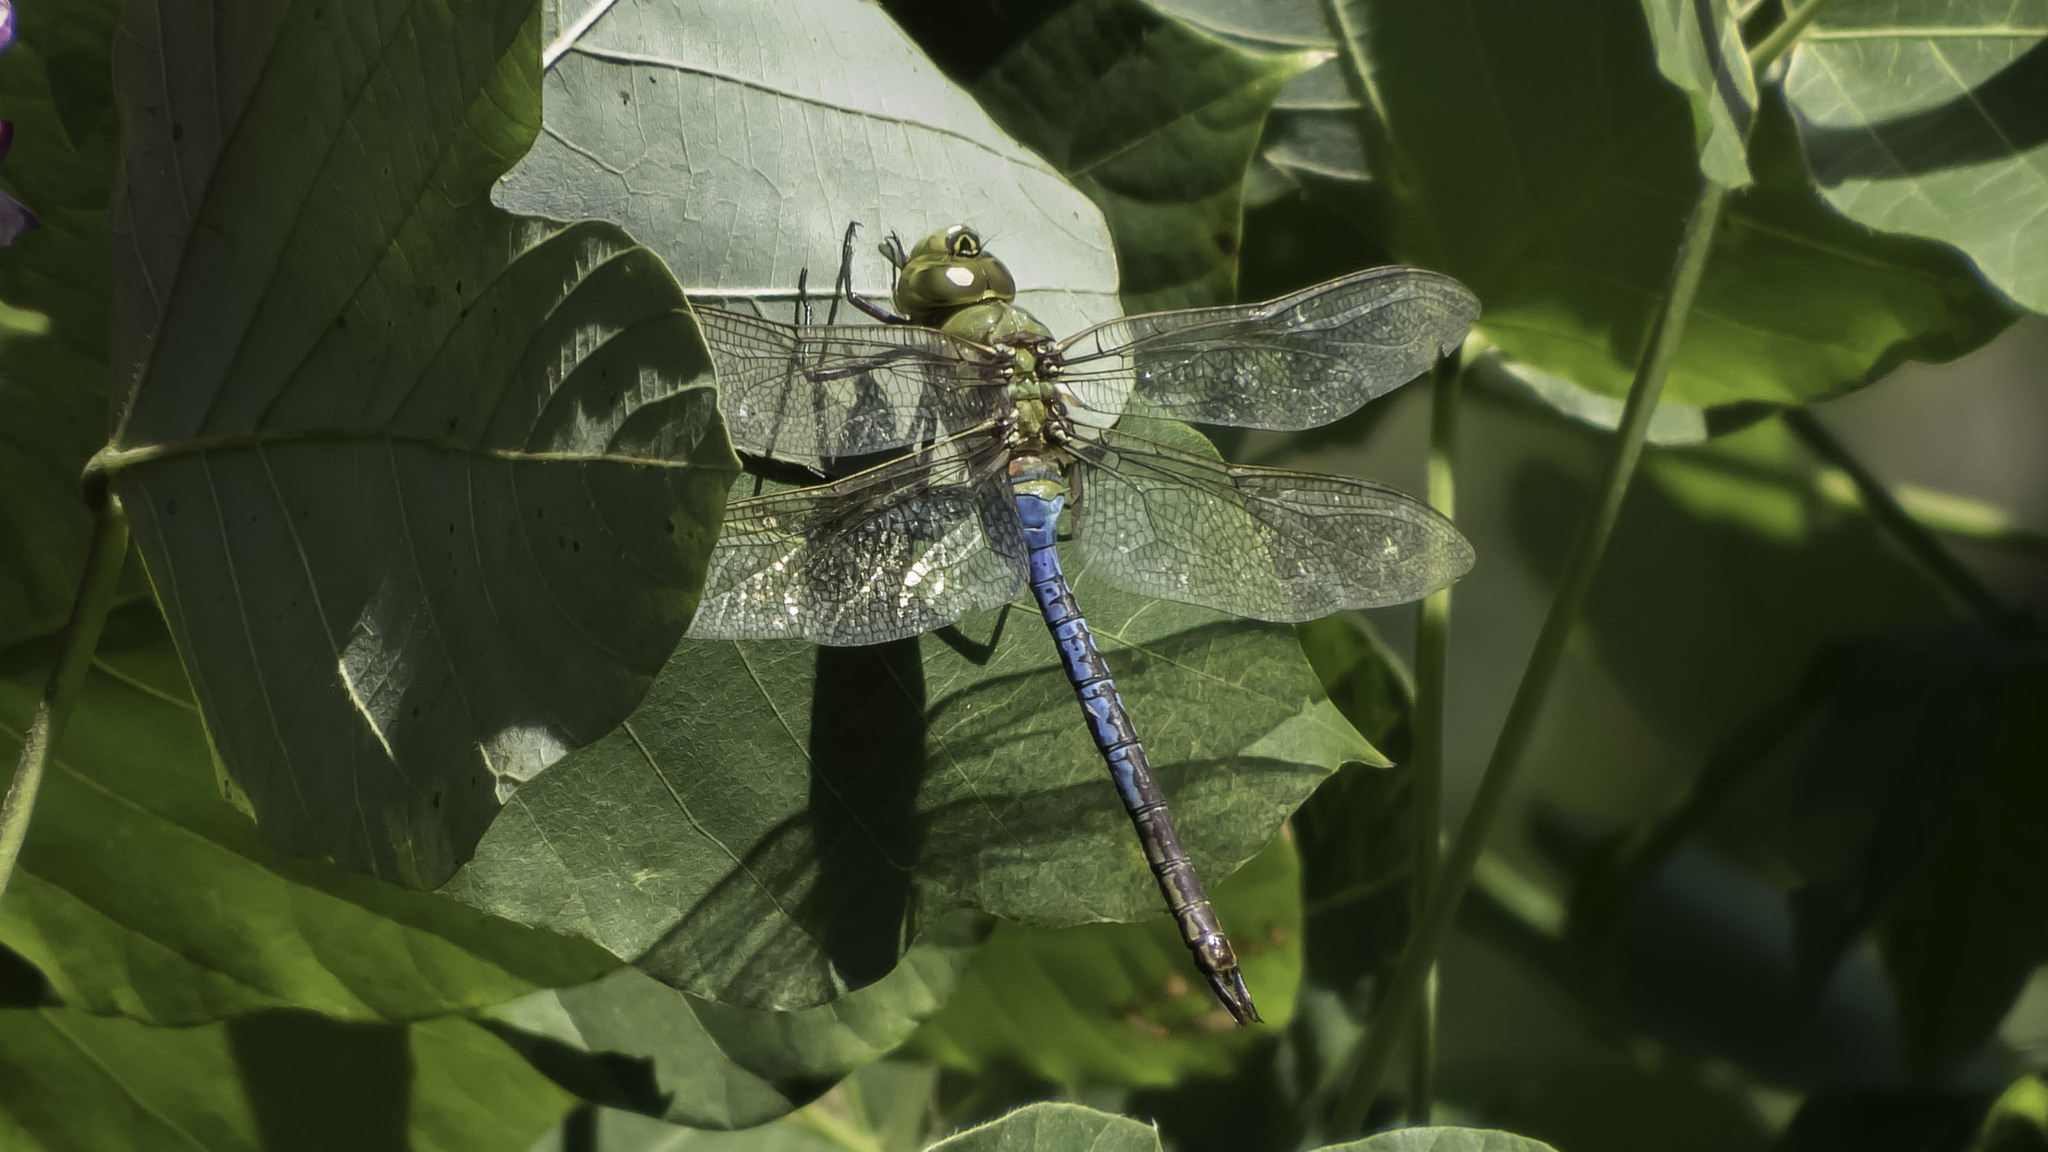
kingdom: Animalia
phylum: Arthropoda
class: Insecta
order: Odonata
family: Aeshnidae
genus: Anax
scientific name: Anax junius
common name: Common green darner
